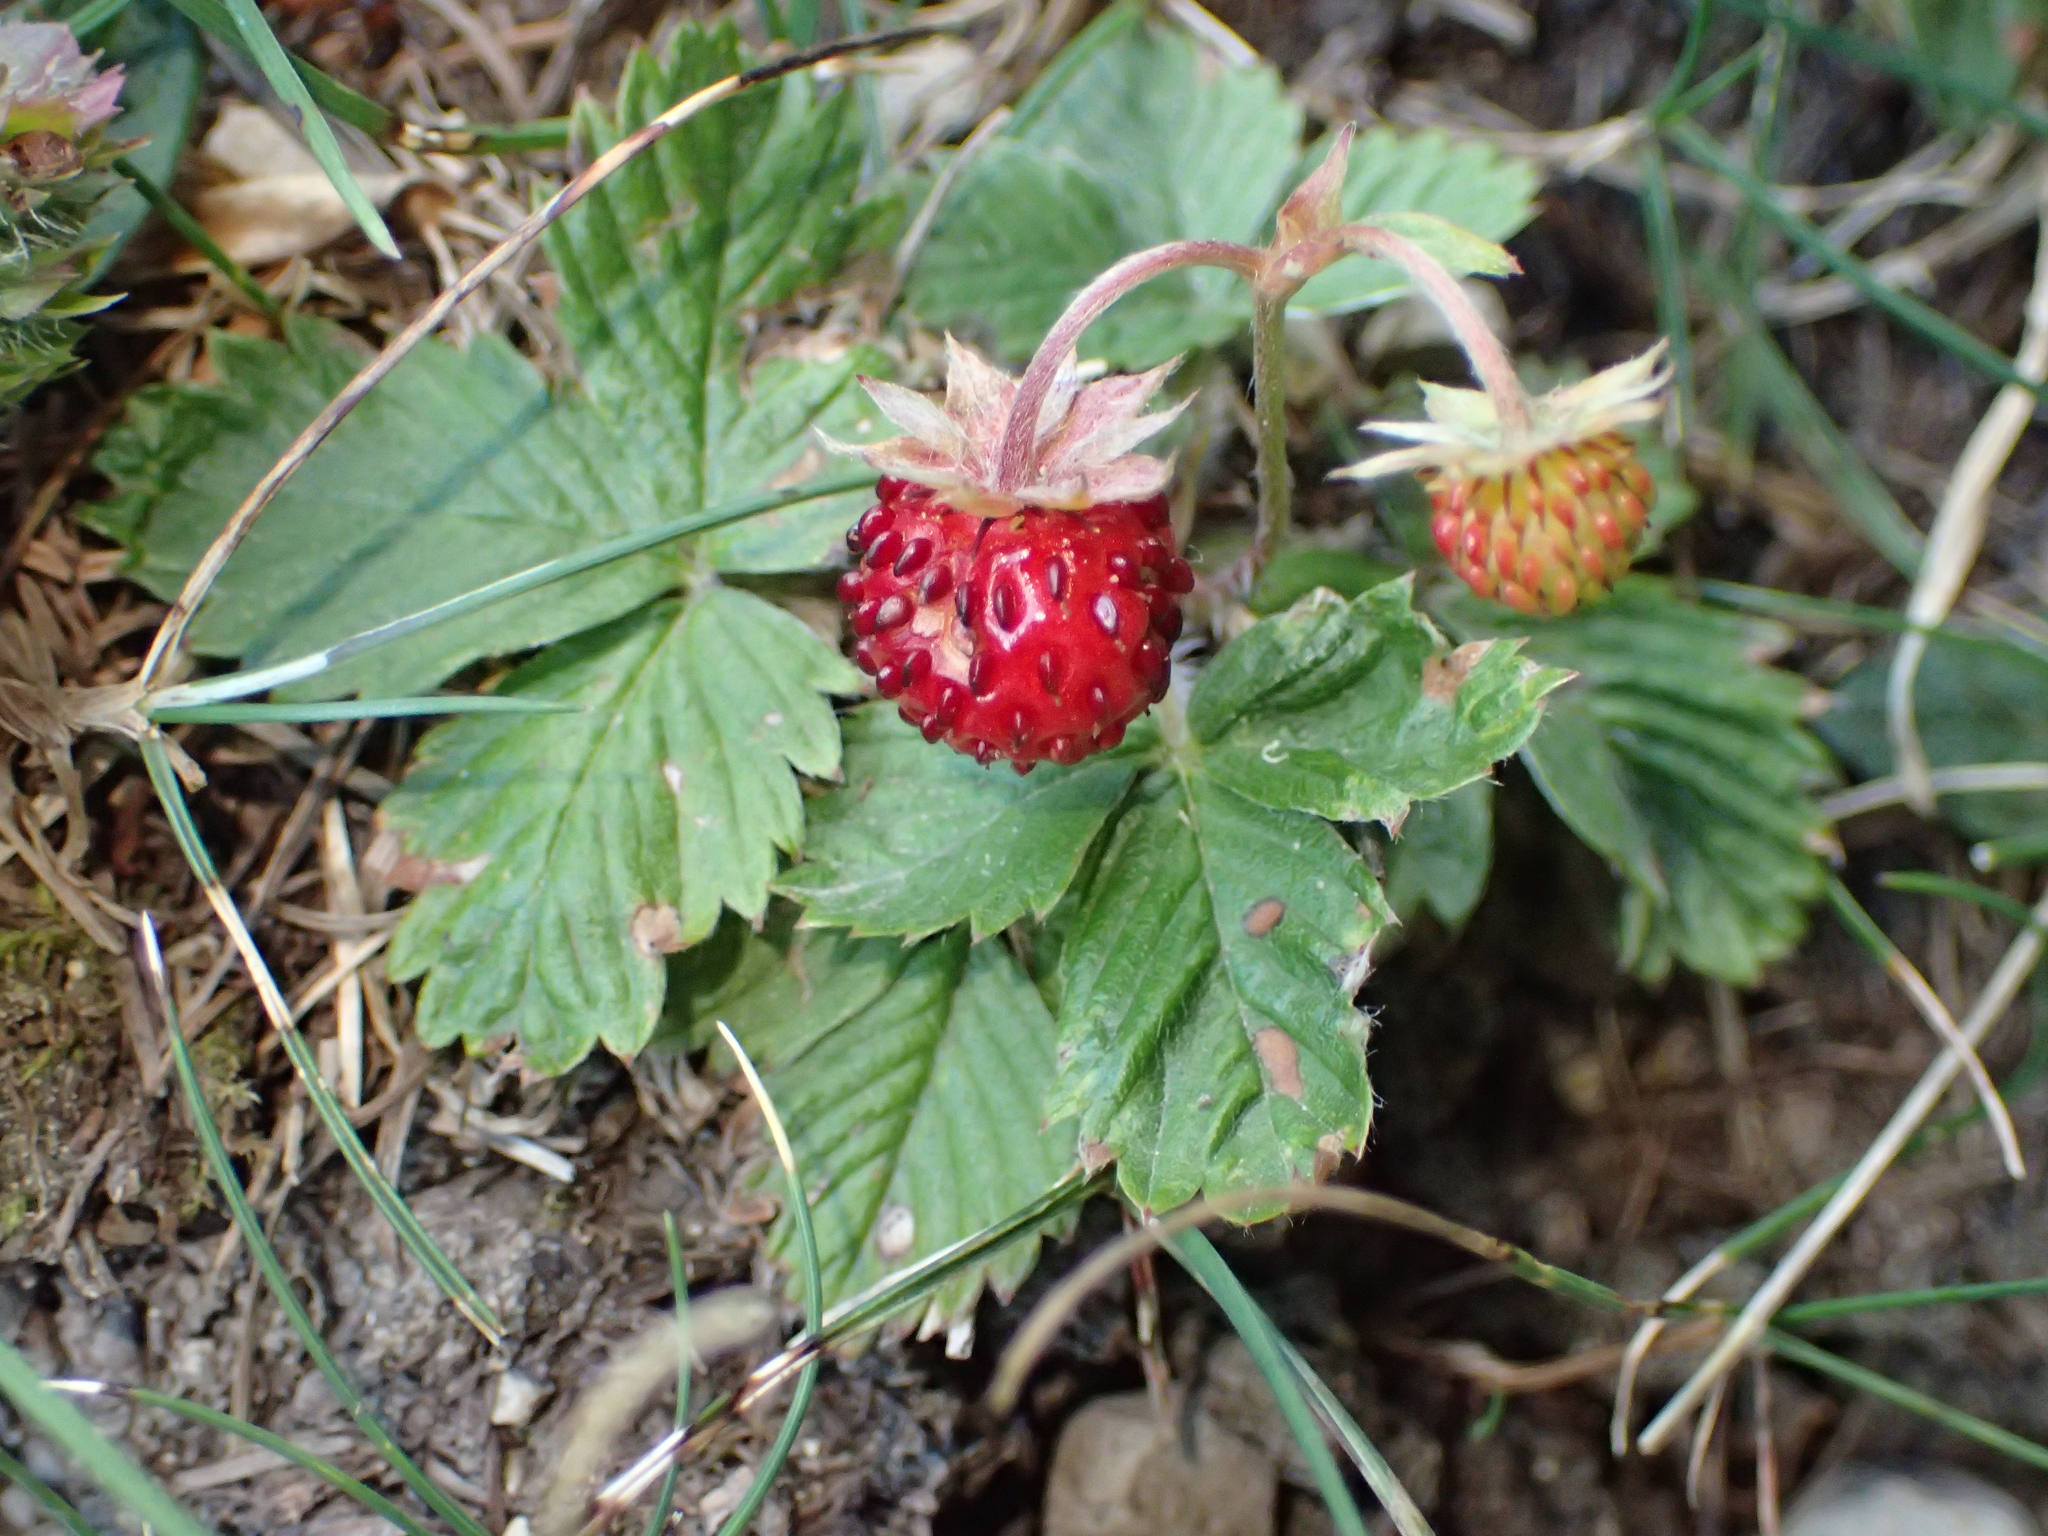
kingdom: Plantae
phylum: Tracheophyta
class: Magnoliopsida
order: Rosales
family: Rosaceae
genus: Fragaria
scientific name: Fragaria vesca
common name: Wild strawberry
